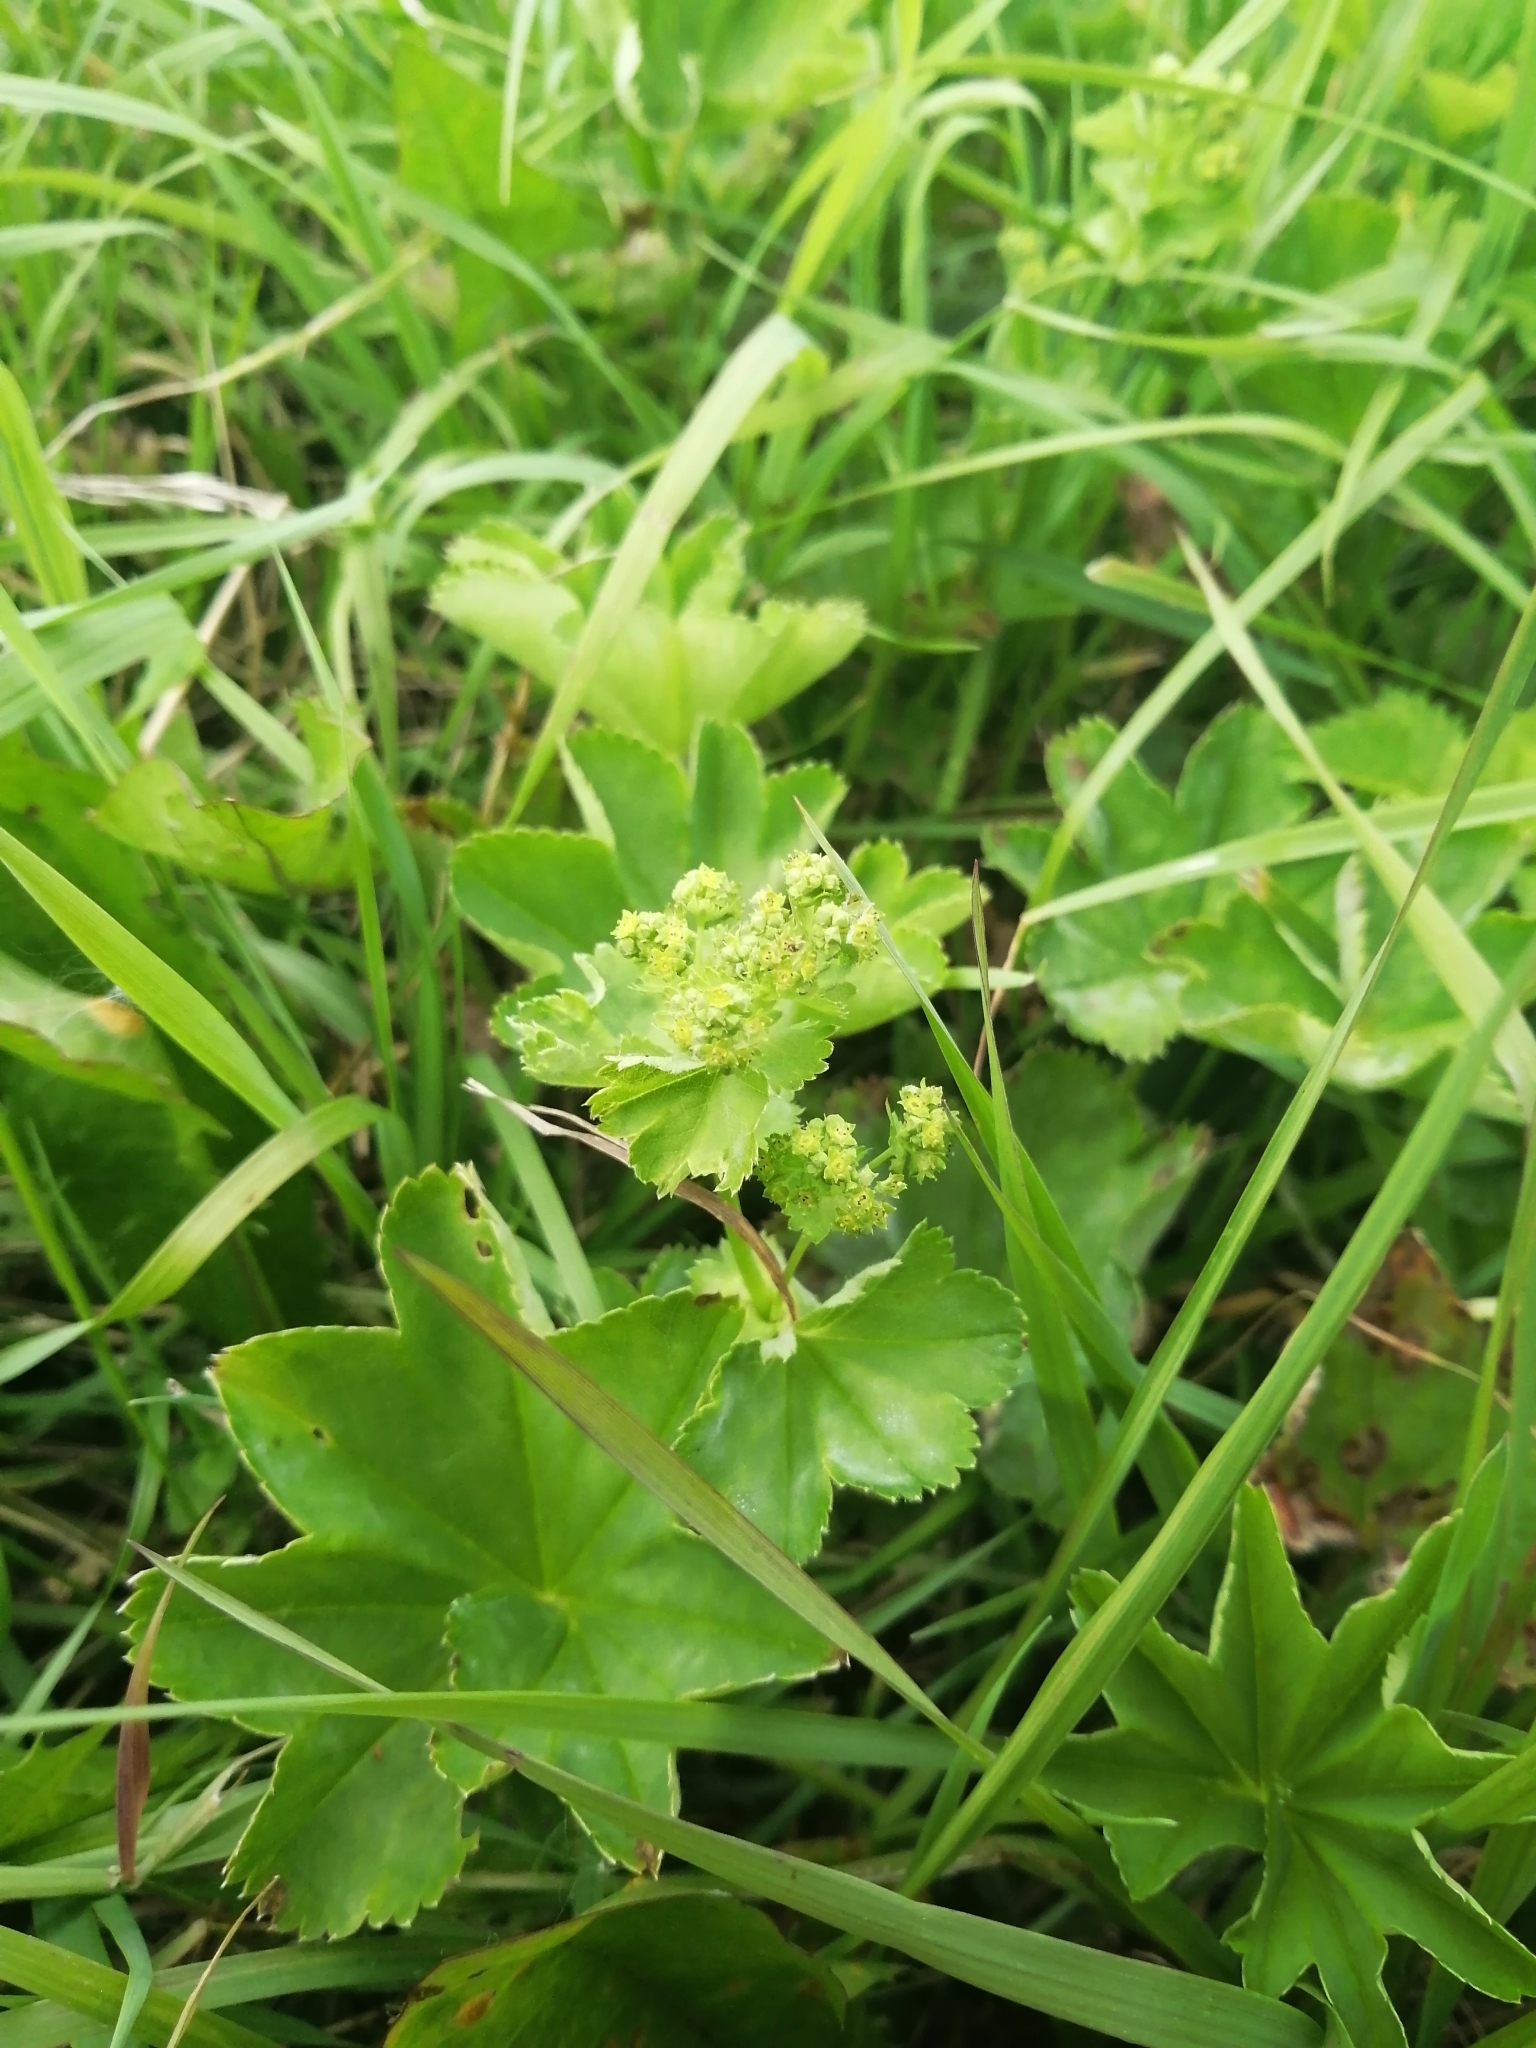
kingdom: Plantae
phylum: Tracheophyta
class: Magnoliopsida
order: Rosales
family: Rosaceae
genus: Alchemilla
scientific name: Alchemilla subcrenata
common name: Broadtooth lady's mantle
